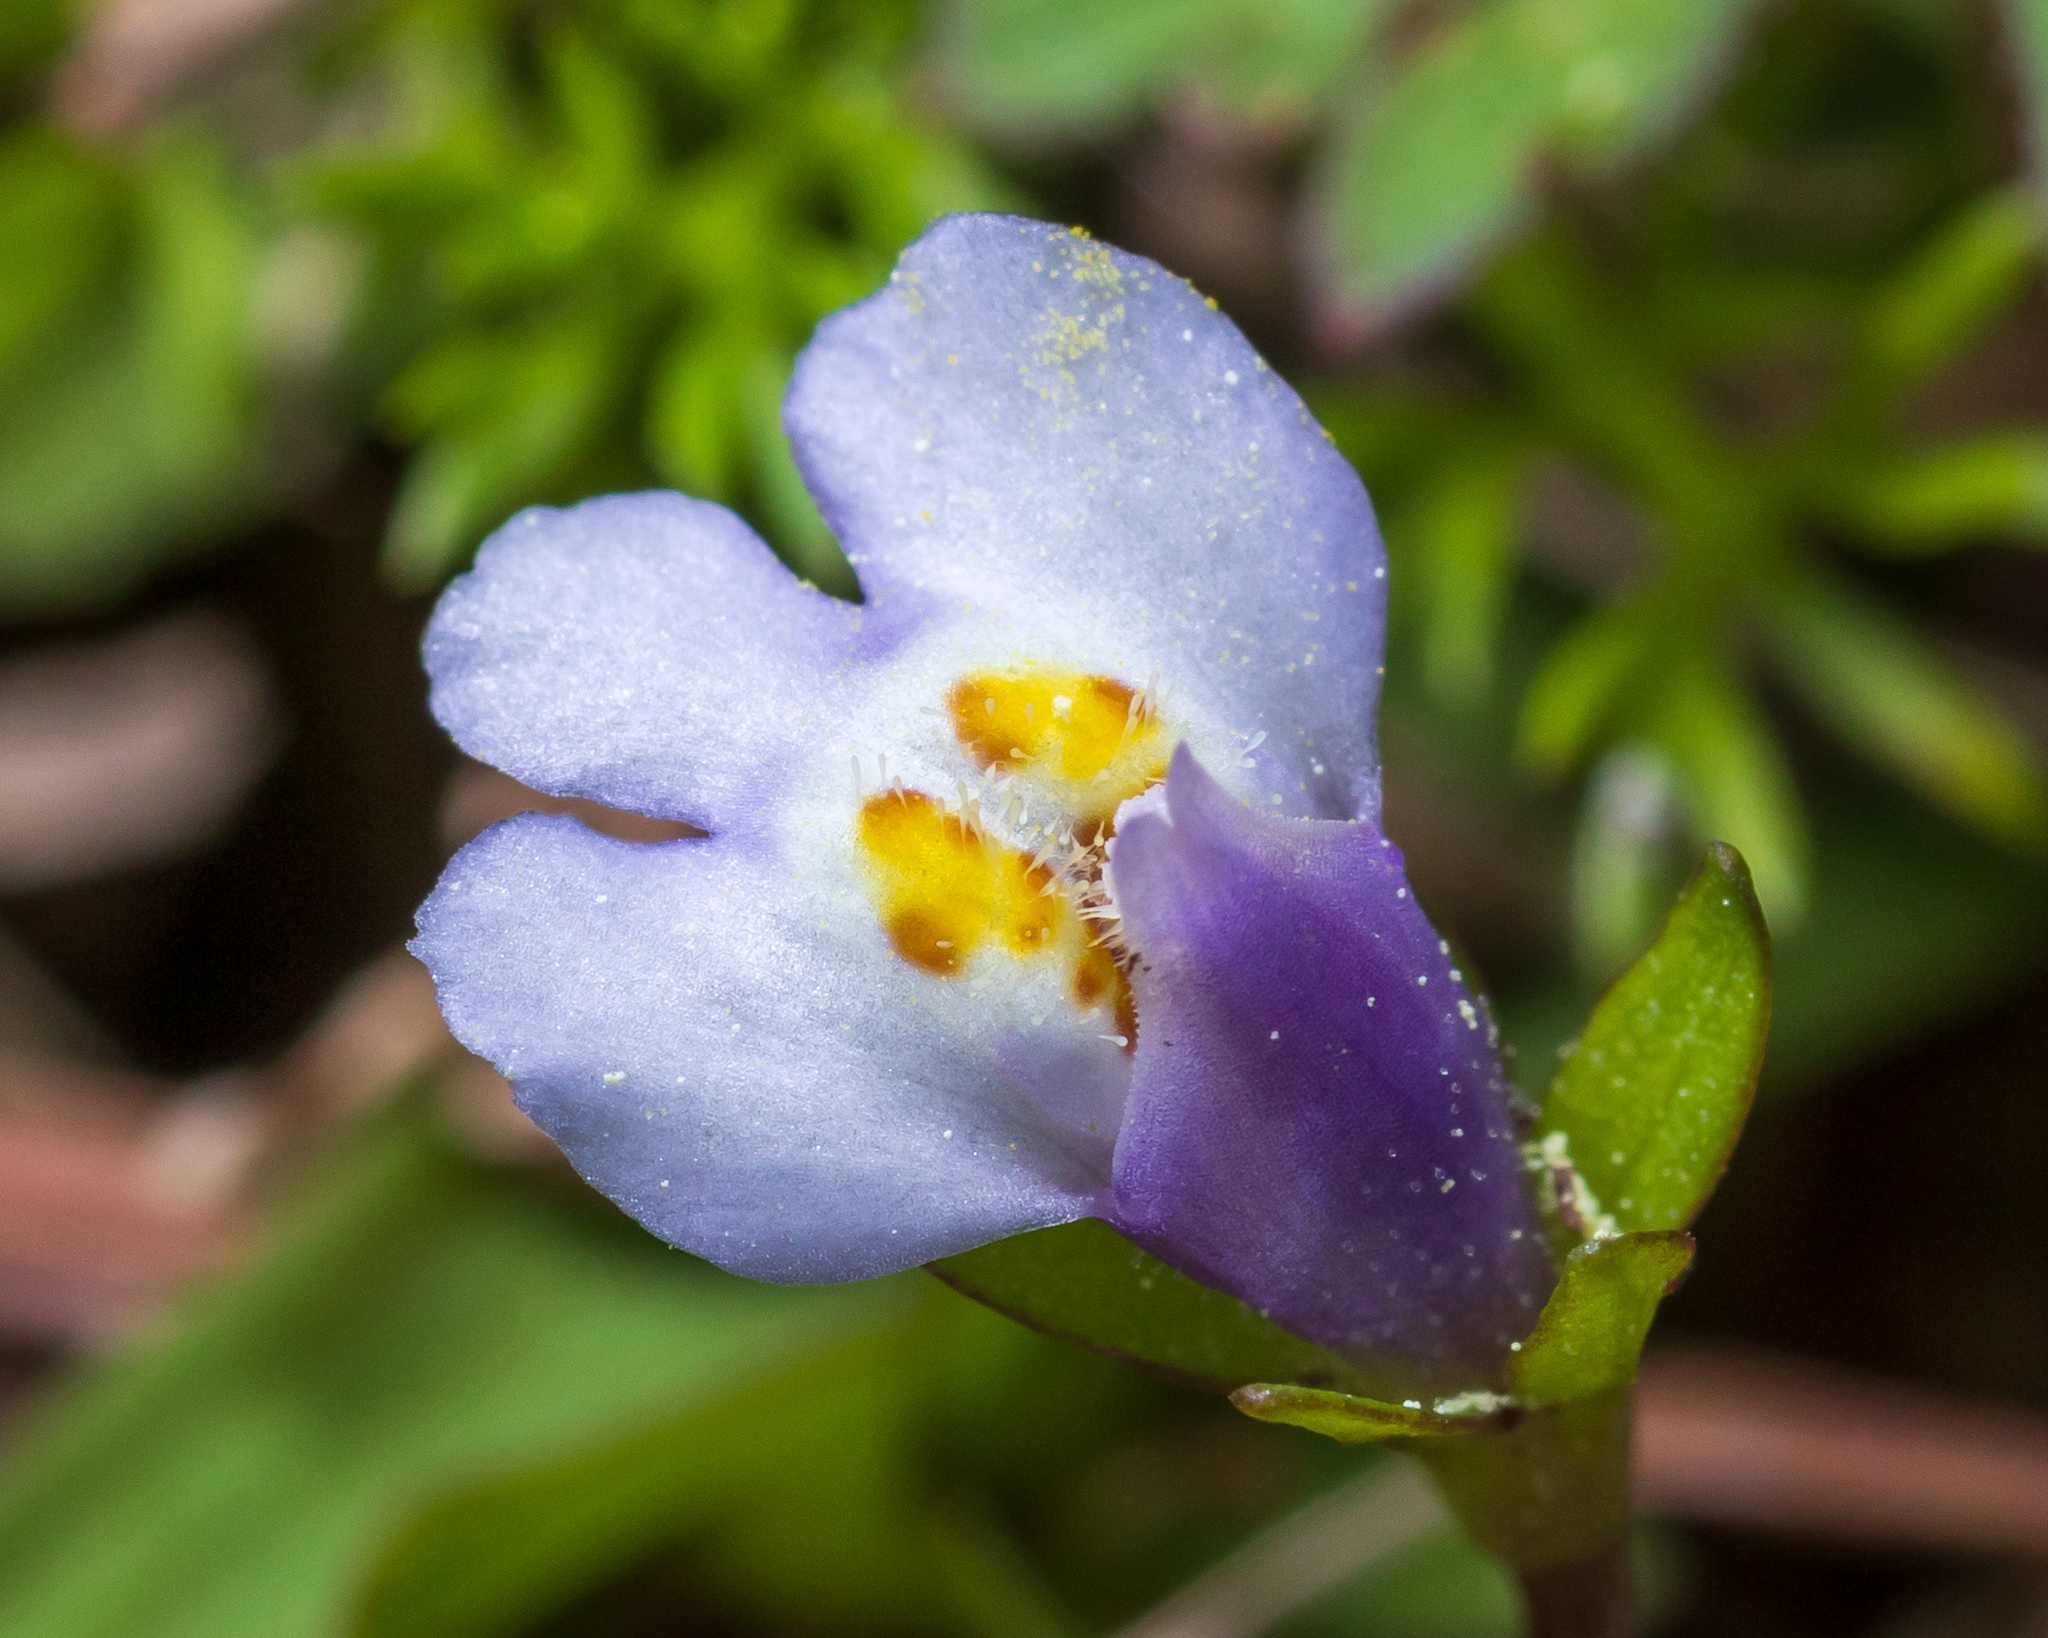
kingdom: Plantae
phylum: Tracheophyta
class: Magnoliopsida
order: Lamiales
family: Mazaceae
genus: Mazus
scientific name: Mazus pumilus
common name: Japanese mazus
